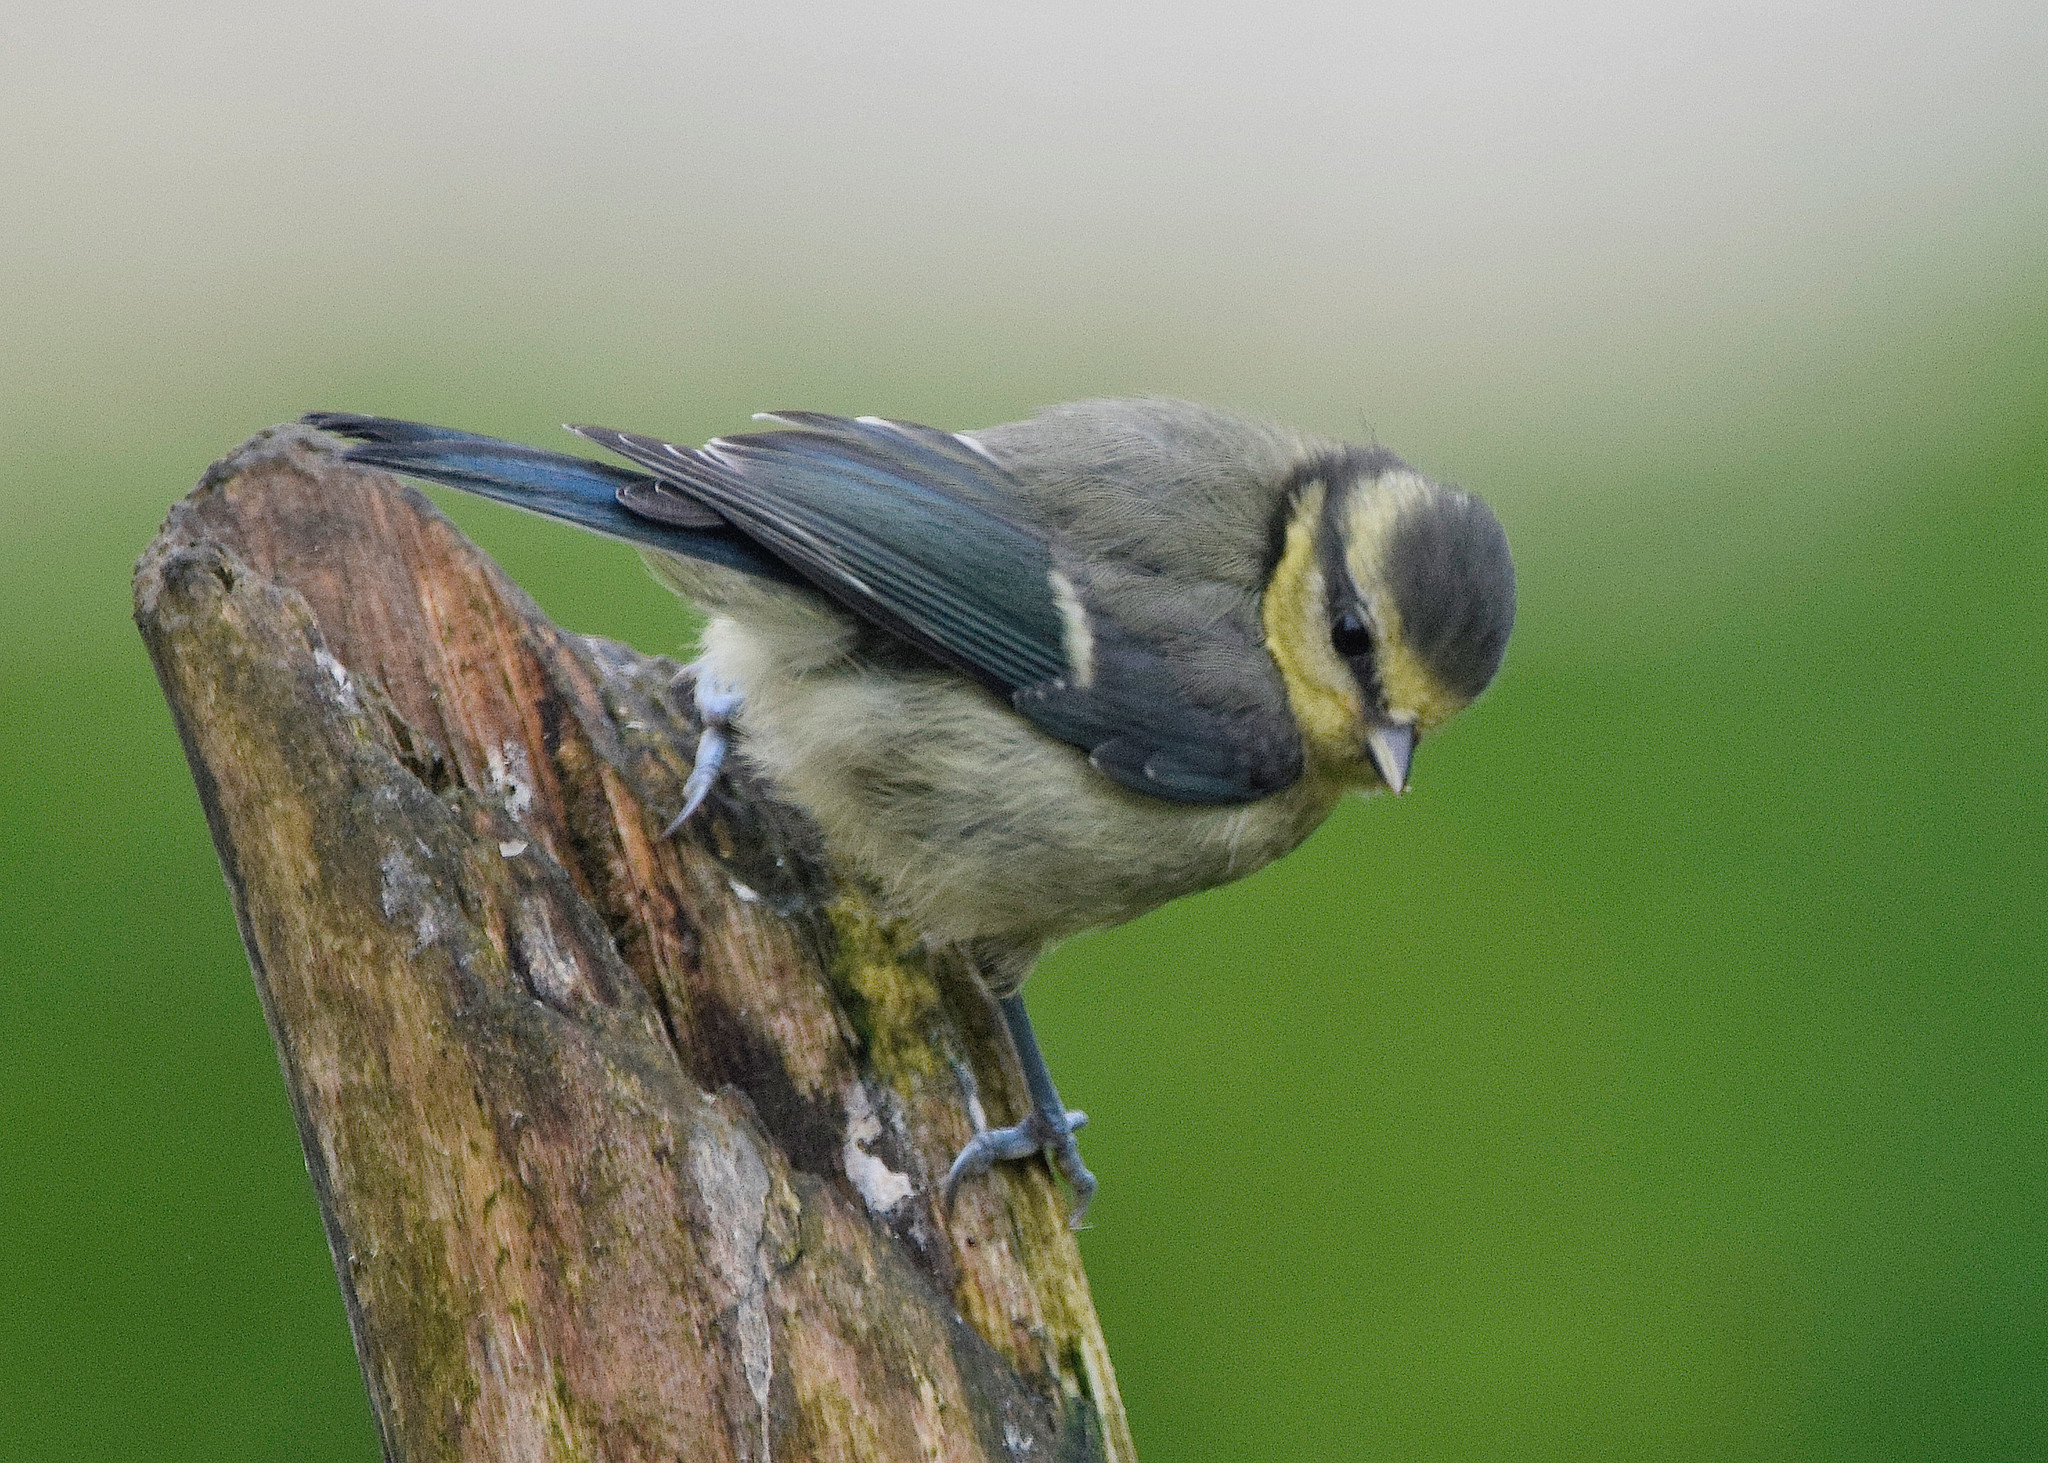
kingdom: Animalia
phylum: Chordata
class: Aves
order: Passeriformes
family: Paridae
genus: Cyanistes
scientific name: Cyanistes caeruleus
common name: Eurasian blue tit
